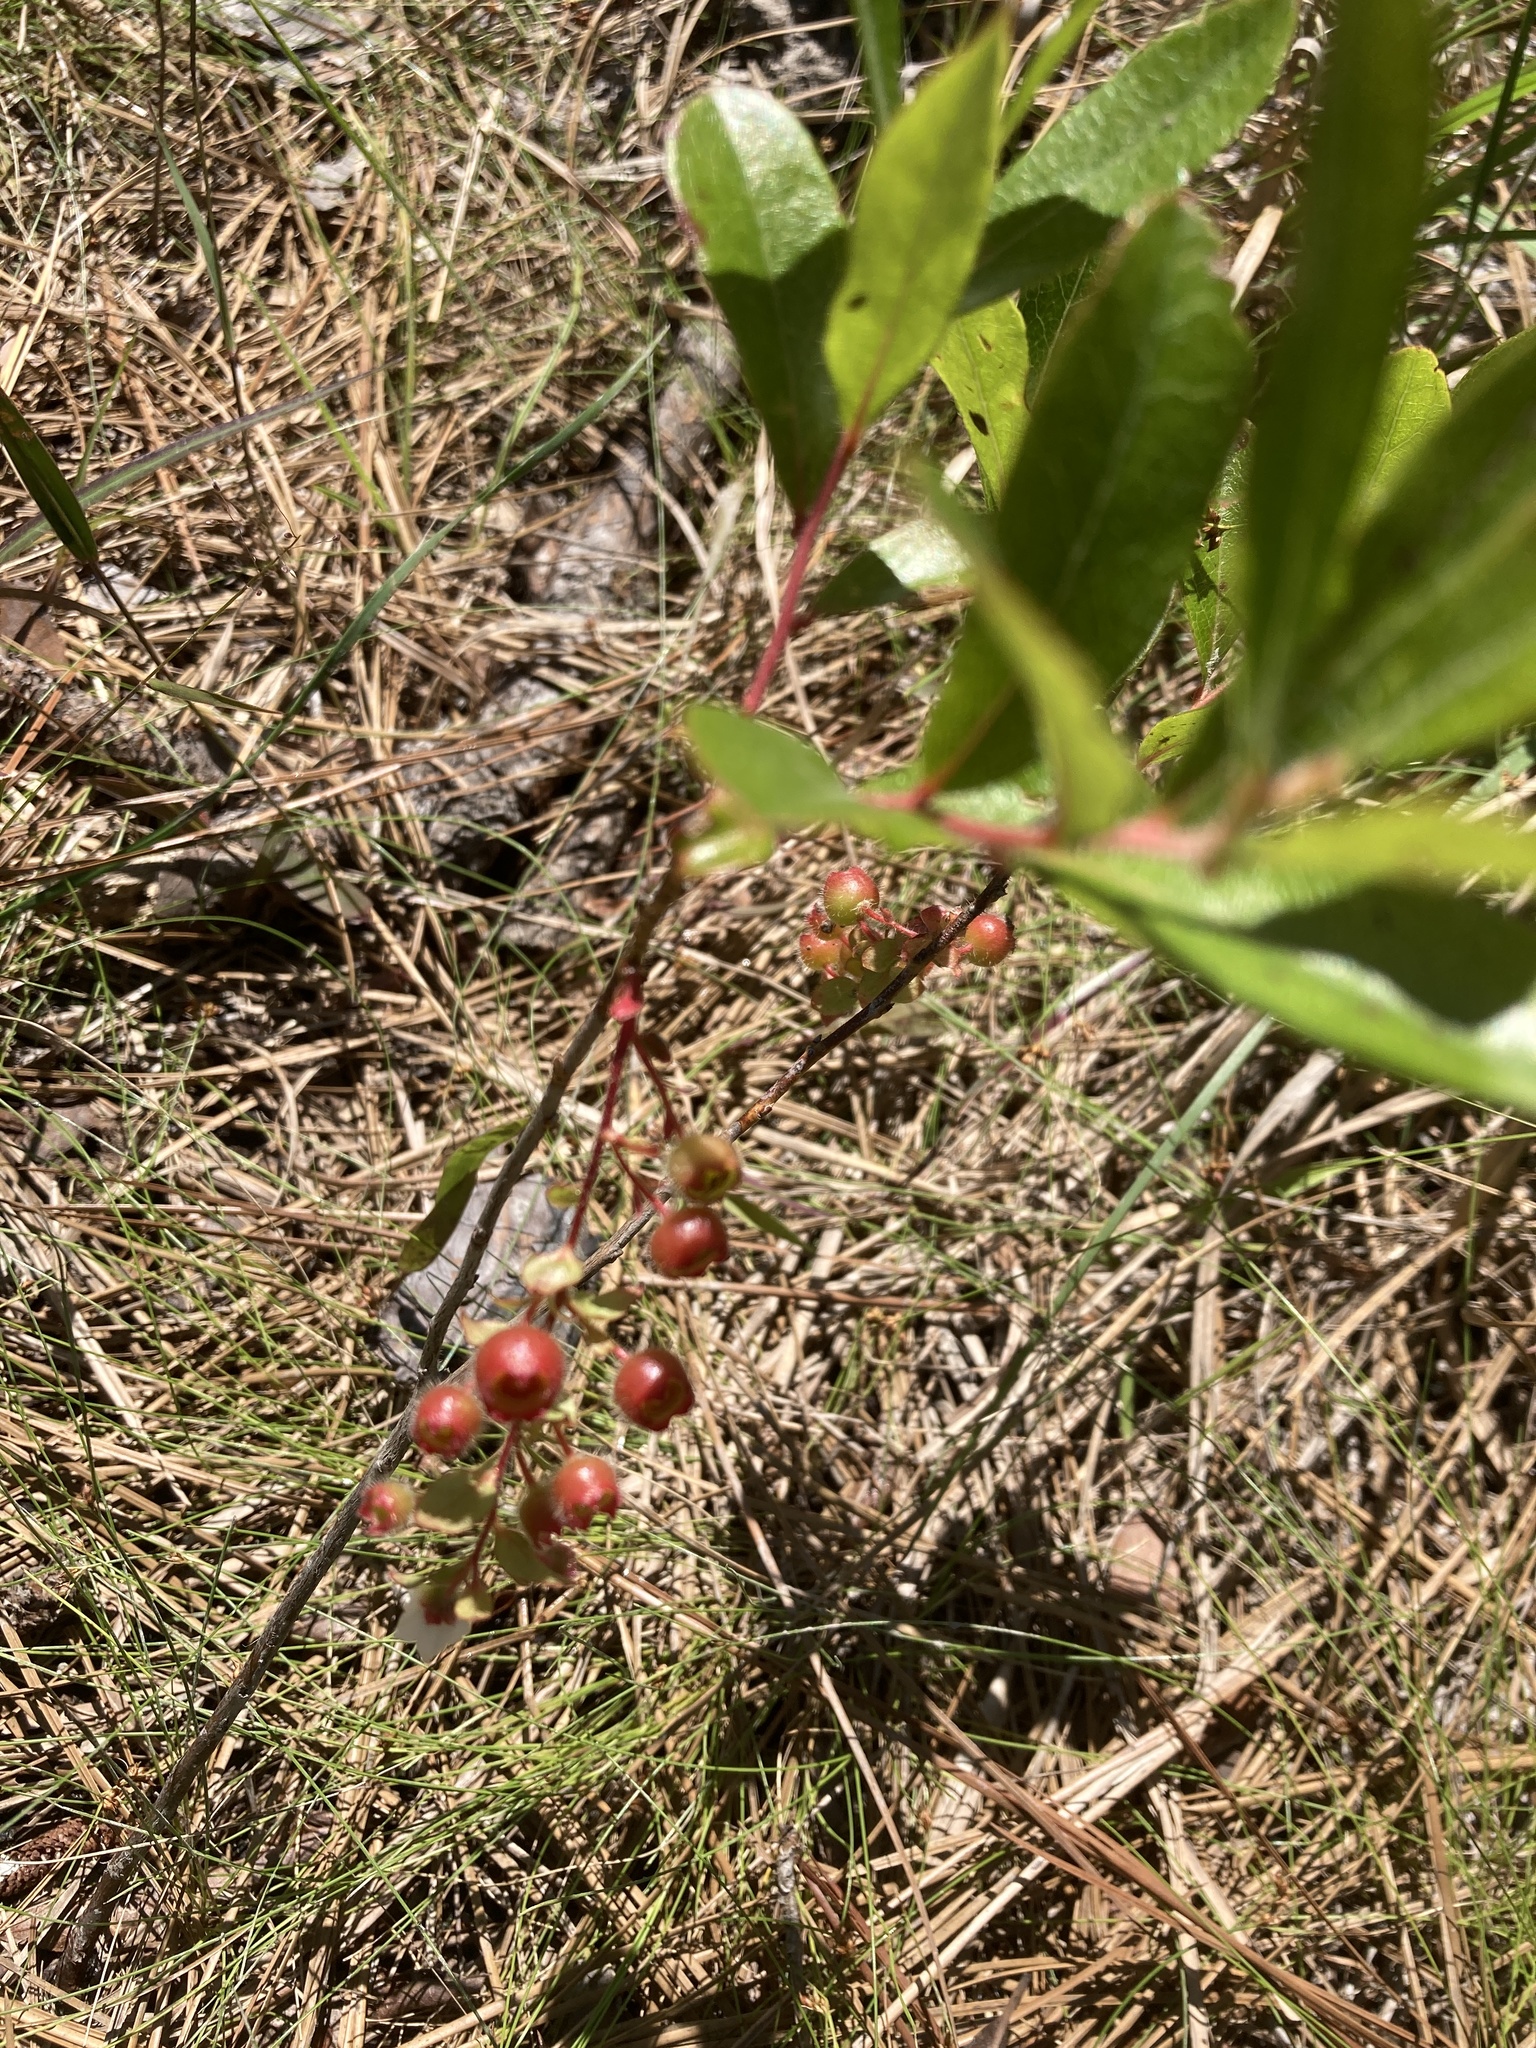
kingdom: Plantae
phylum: Tracheophyta
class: Magnoliopsida
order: Ericales
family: Ericaceae
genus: Gaylussacia
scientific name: Gaylussacia mosieri
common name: Hirsute huckleberry
